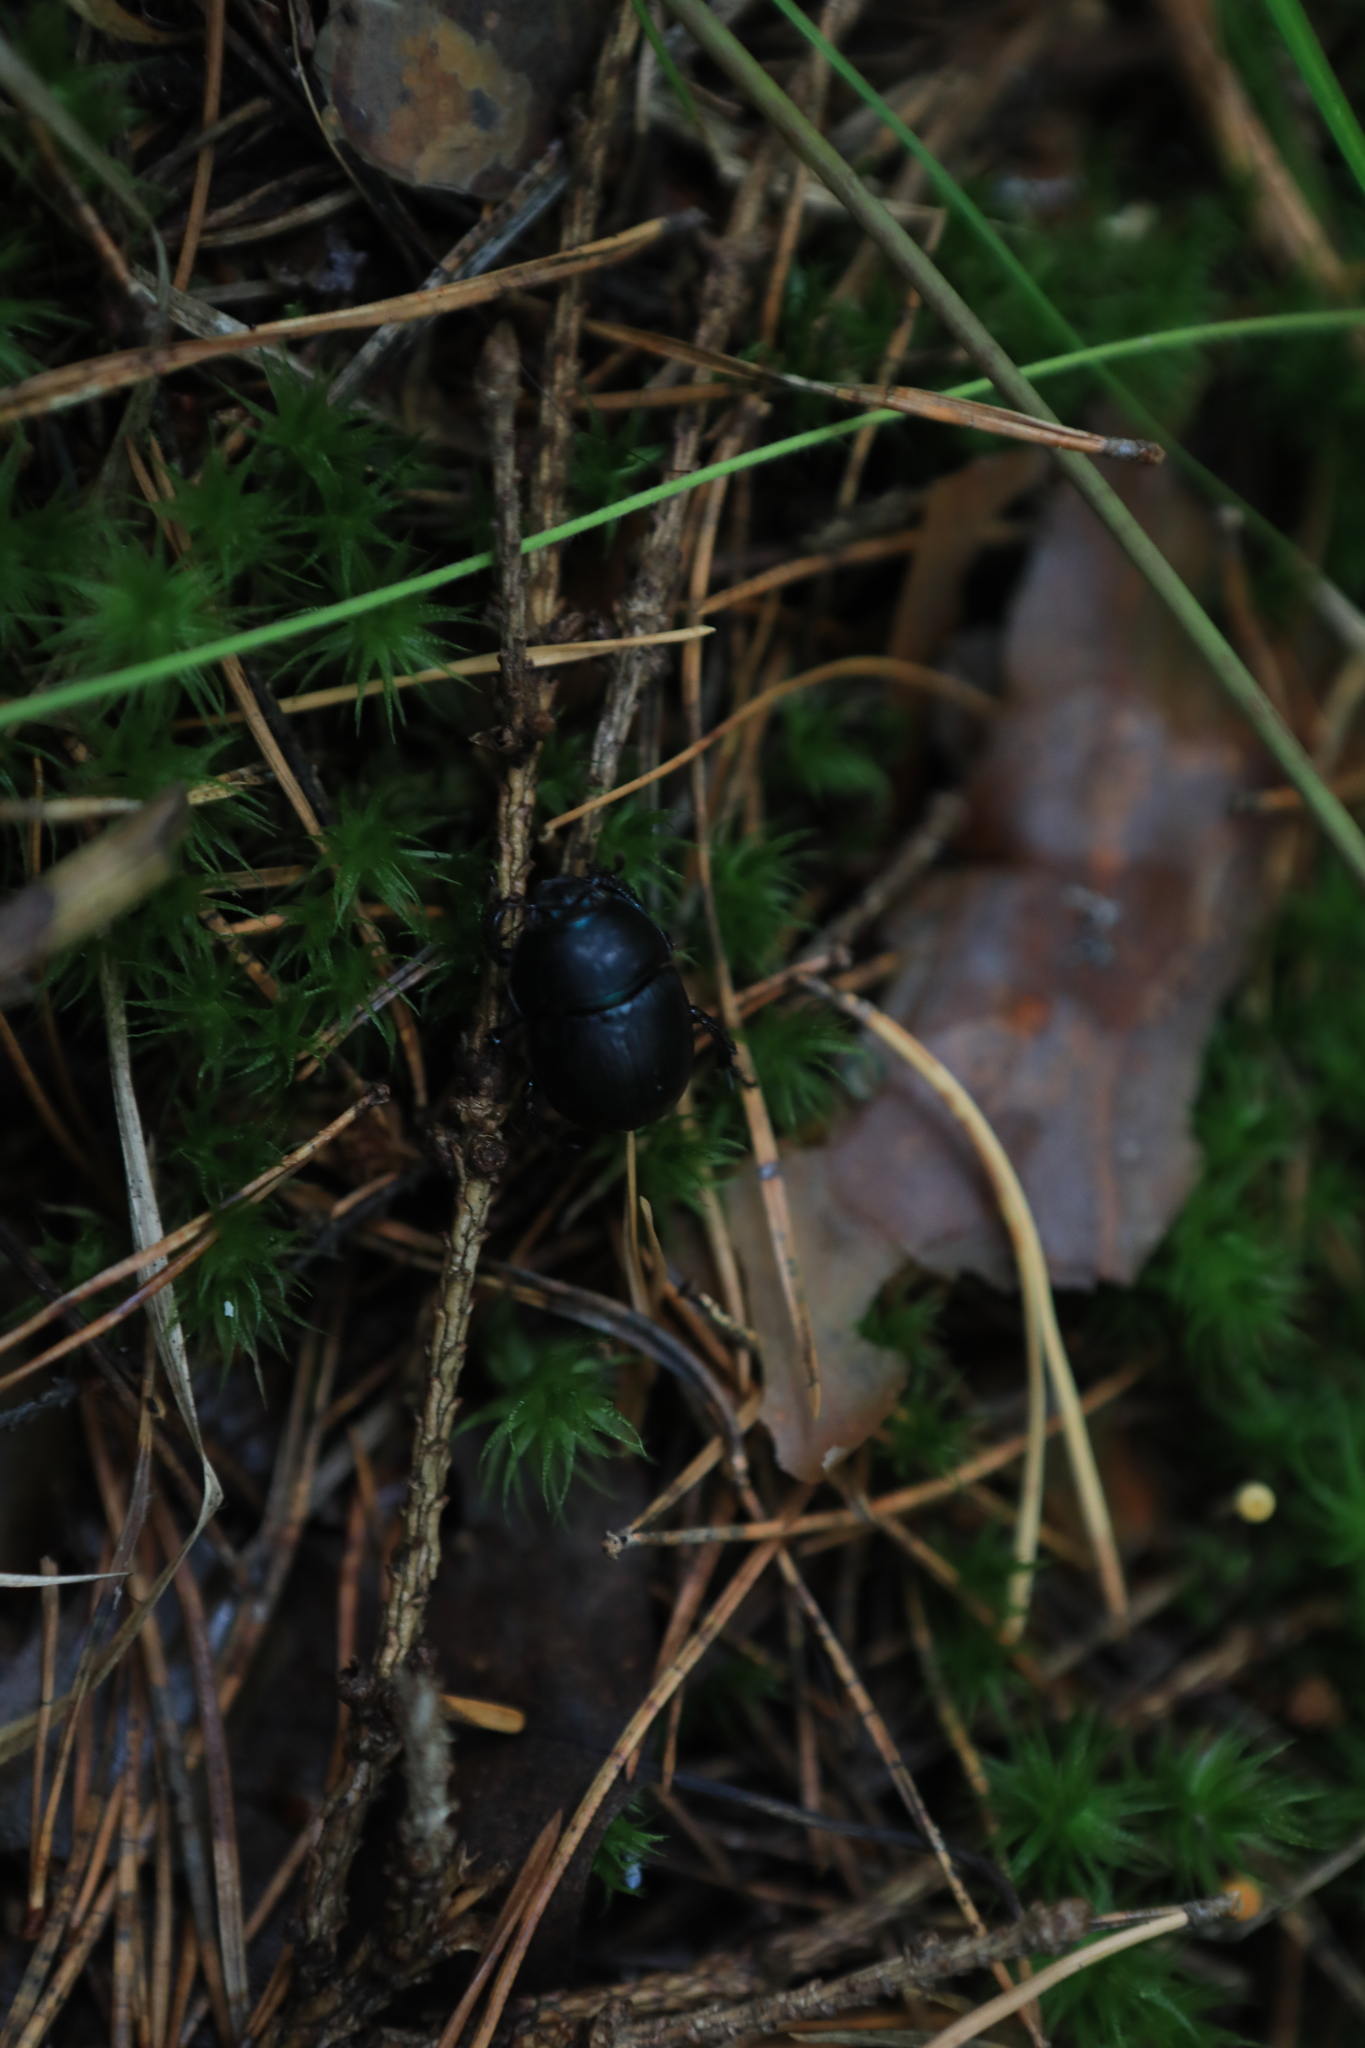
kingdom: Animalia
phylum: Arthropoda
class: Insecta
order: Coleoptera
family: Geotrupidae
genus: Anoplotrupes
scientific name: Anoplotrupes stercorosus
